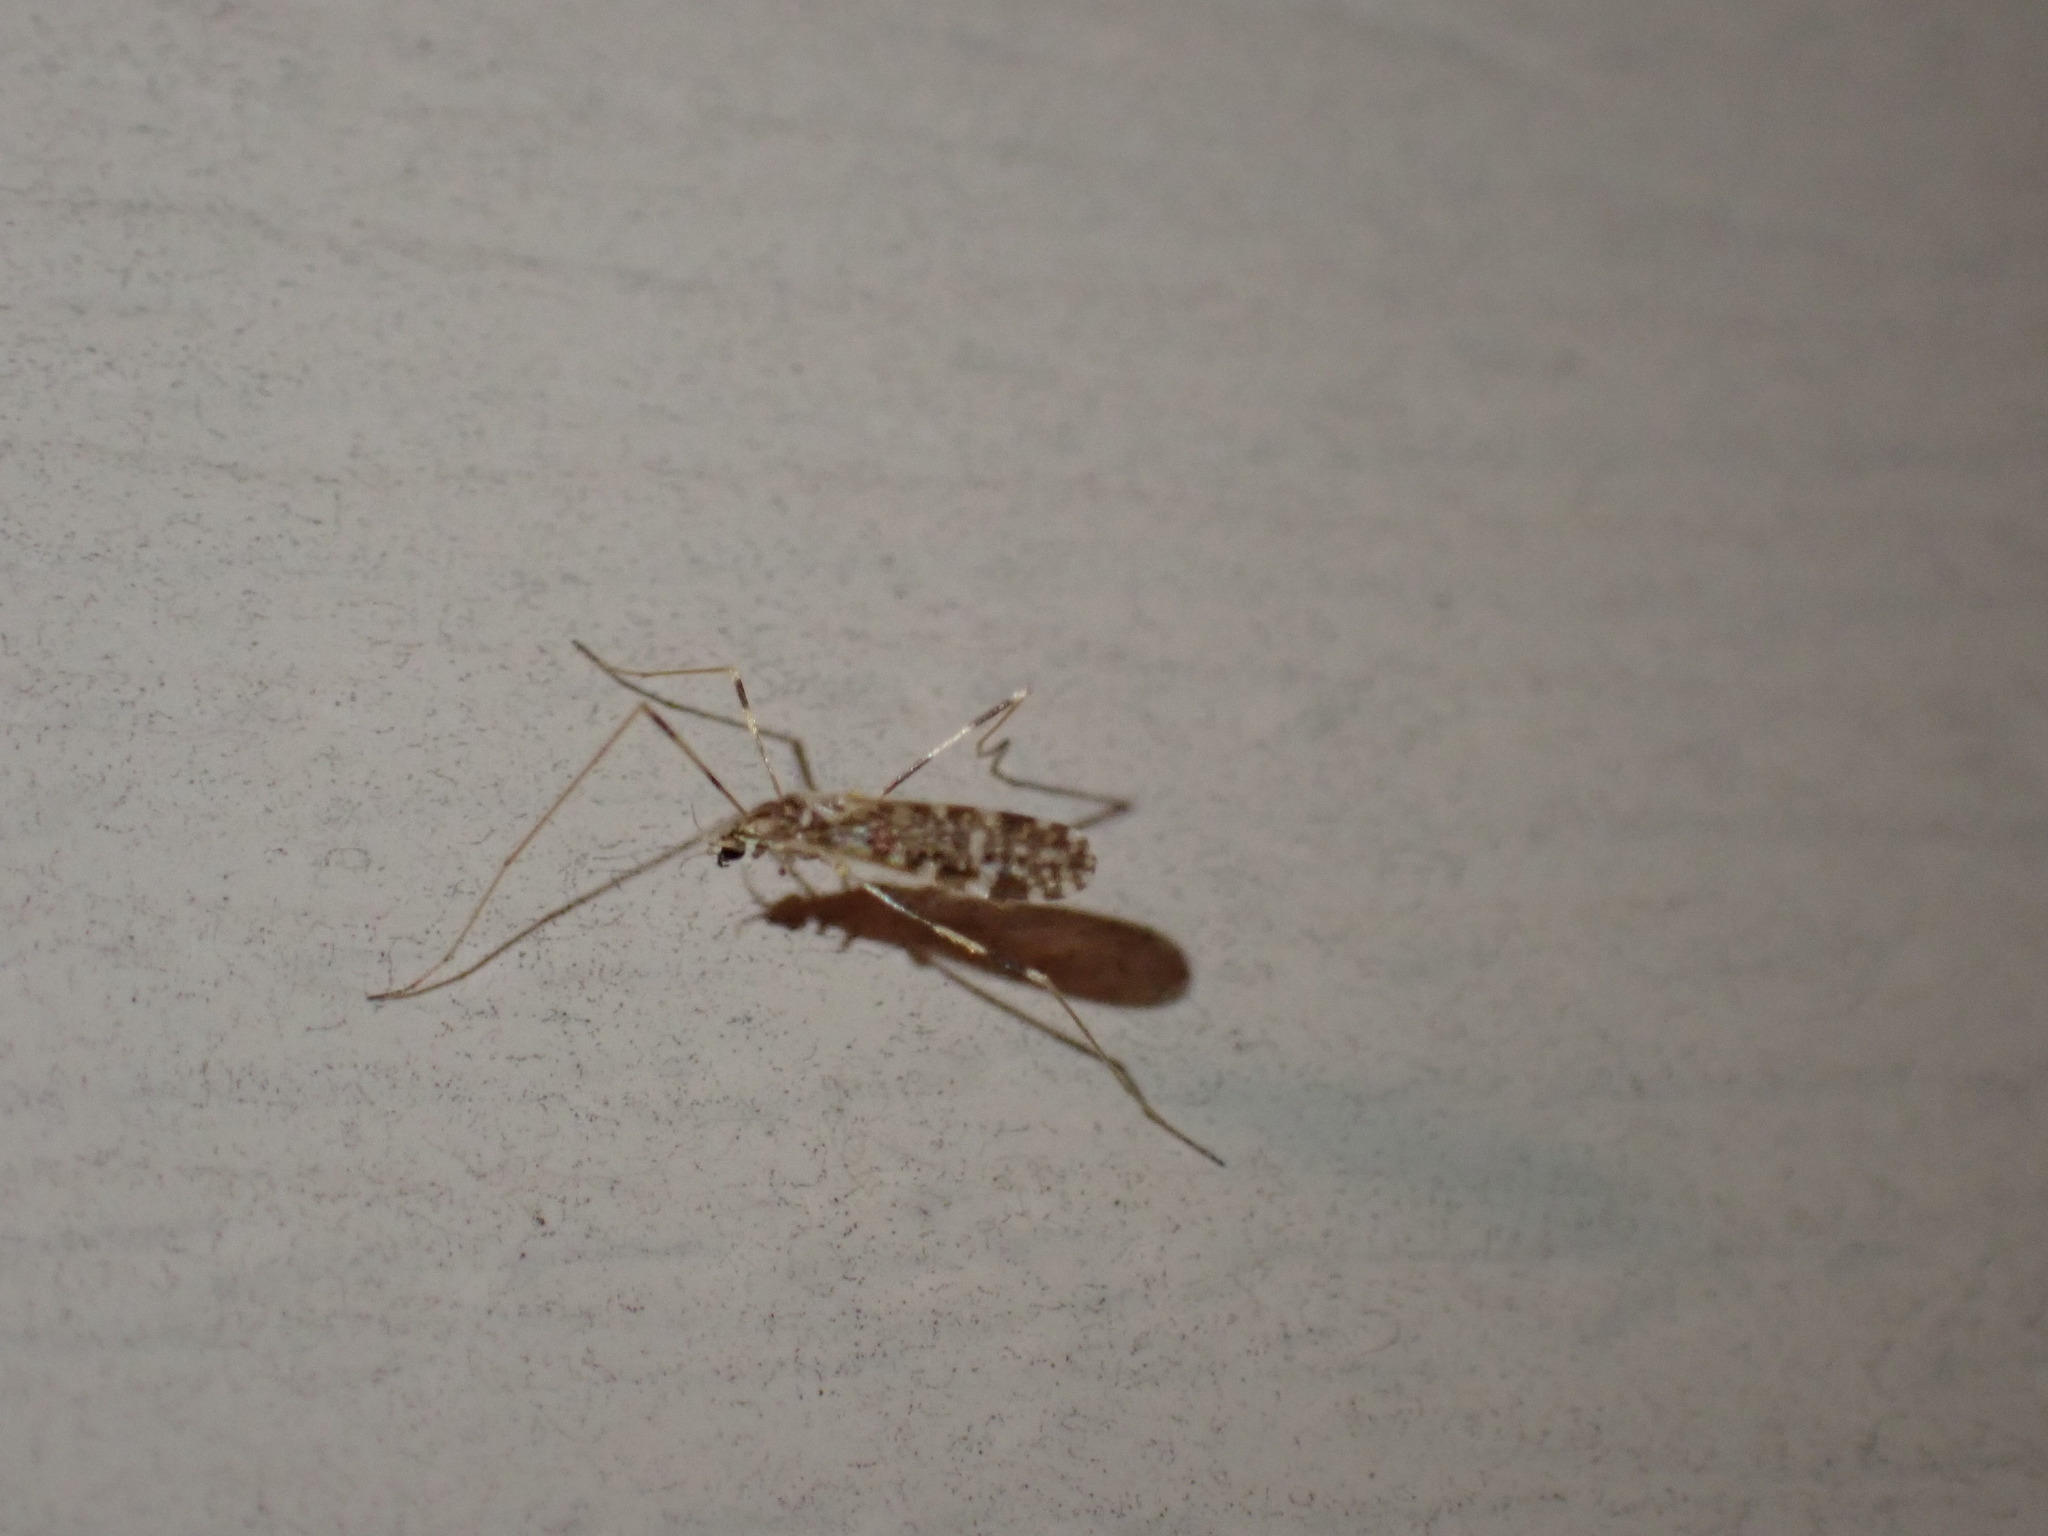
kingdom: Animalia
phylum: Arthropoda
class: Insecta
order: Diptera
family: Limoniidae
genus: Erioptera
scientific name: Erioptera caliptera
